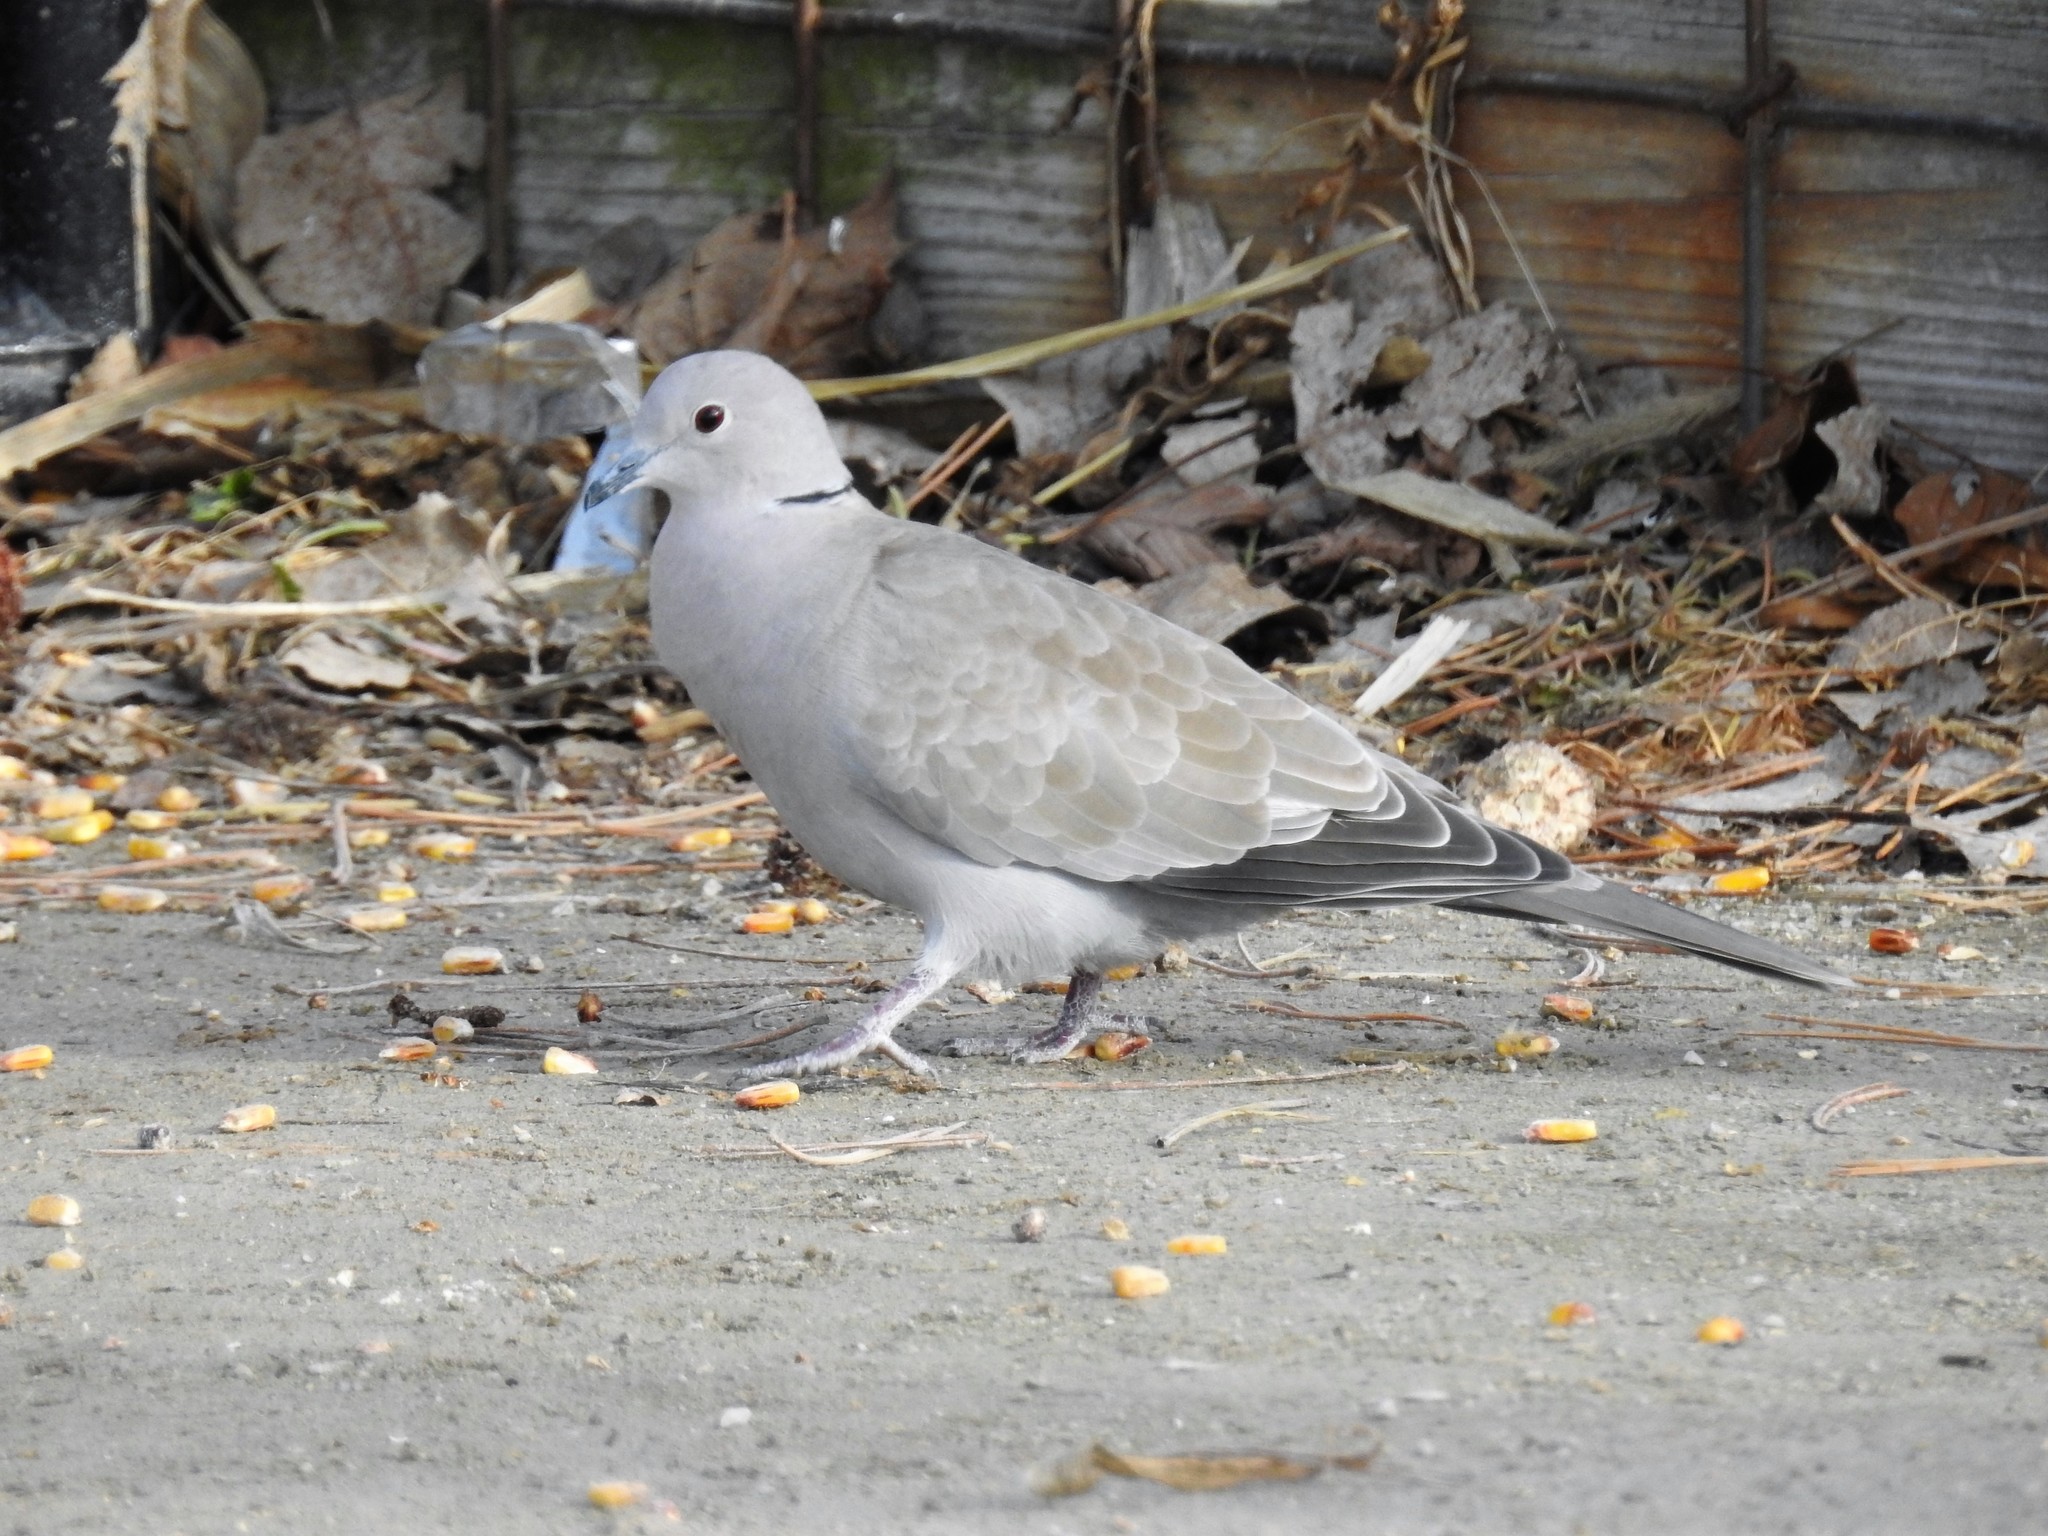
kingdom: Animalia
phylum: Chordata
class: Aves
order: Columbiformes
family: Columbidae
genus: Streptopelia
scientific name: Streptopelia decaocto
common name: Eurasian collared dove
